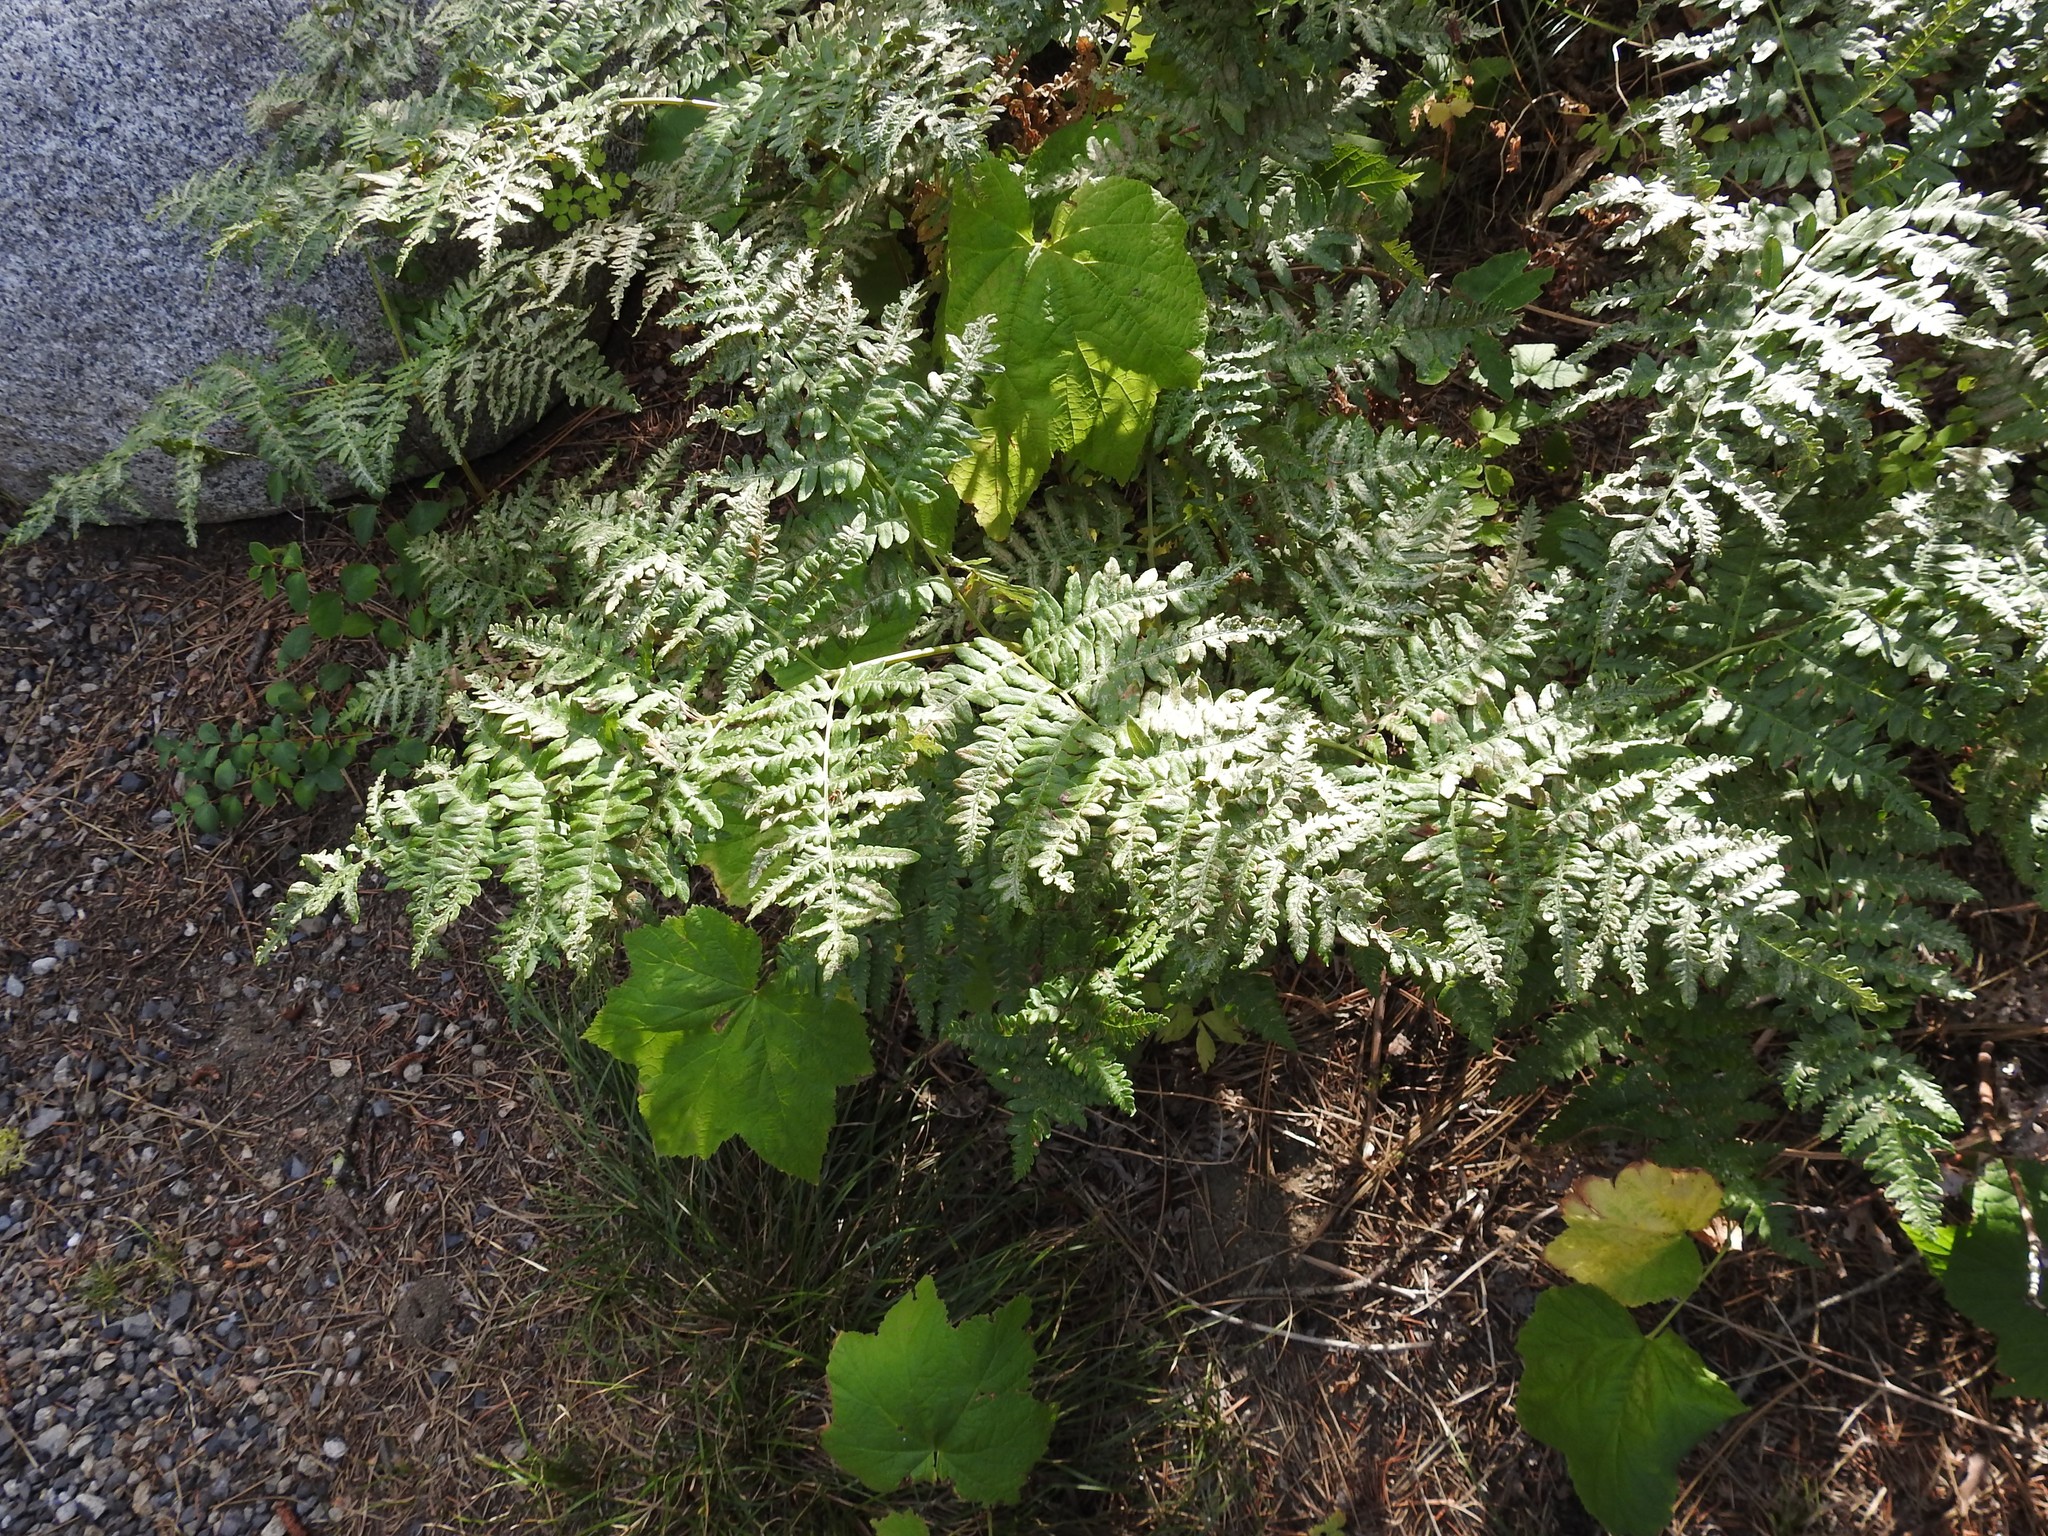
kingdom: Plantae
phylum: Tracheophyta
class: Polypodiopsida
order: Polypodiales
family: Dennstaedtiaceae
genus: Pteridium
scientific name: Pteridium aquilinum
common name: Bracken
